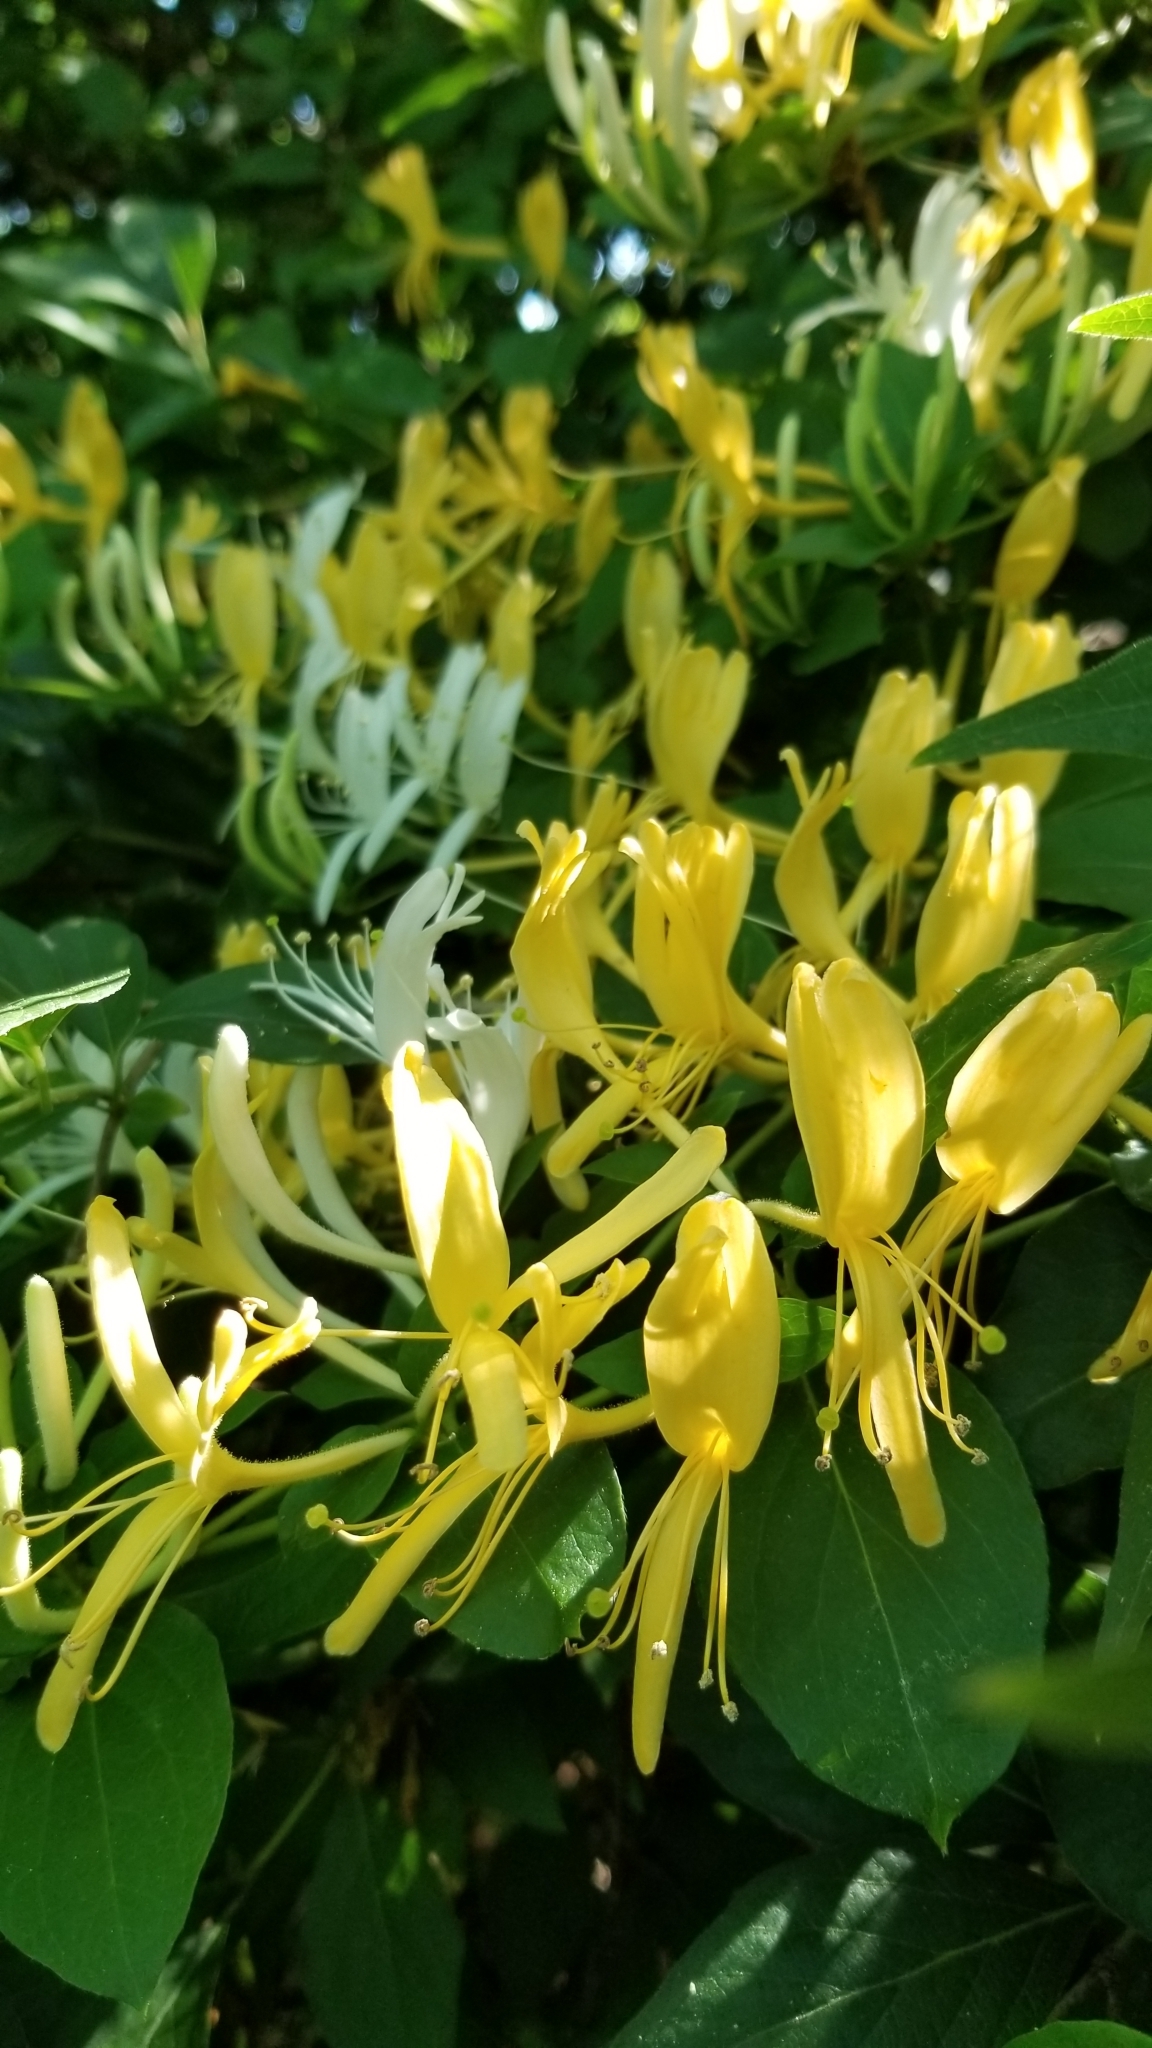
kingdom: Plantae
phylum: Tracheophyta
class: Magnoliopsida
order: Dipsacales
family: Caprifoliaceae
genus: Lonicera
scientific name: Lonicera japonica
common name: Japanese honeysuckle
